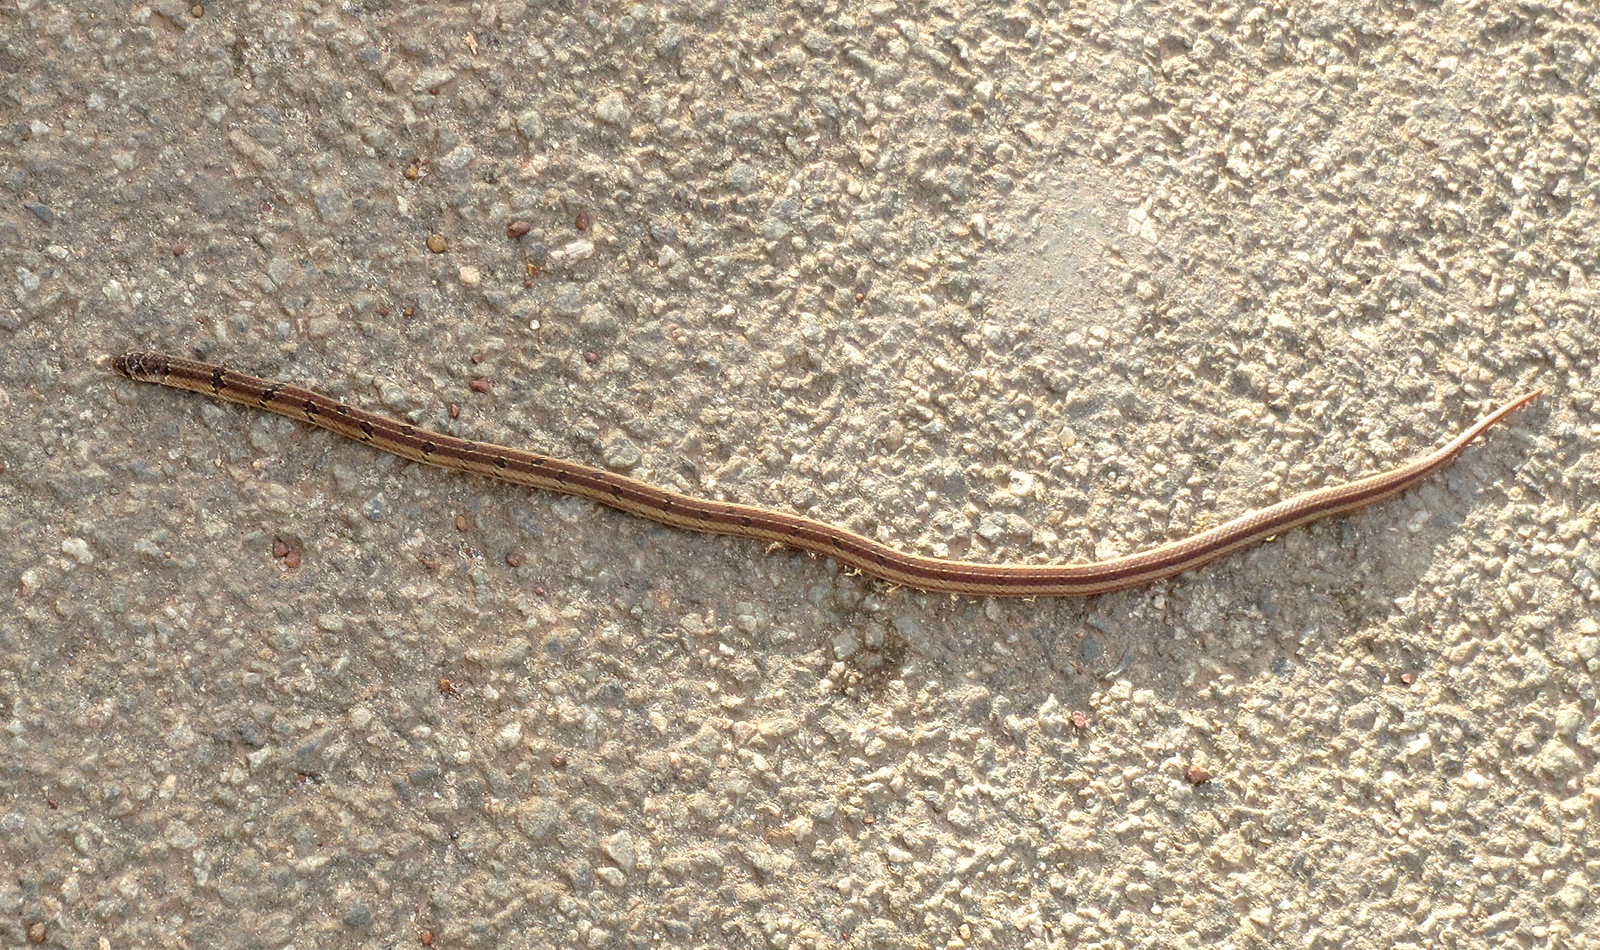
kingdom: Animalia
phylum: Chordata
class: Squamata
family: Colubridae
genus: Oligodon
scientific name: Oligodon taeniolatus
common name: Loos snake
